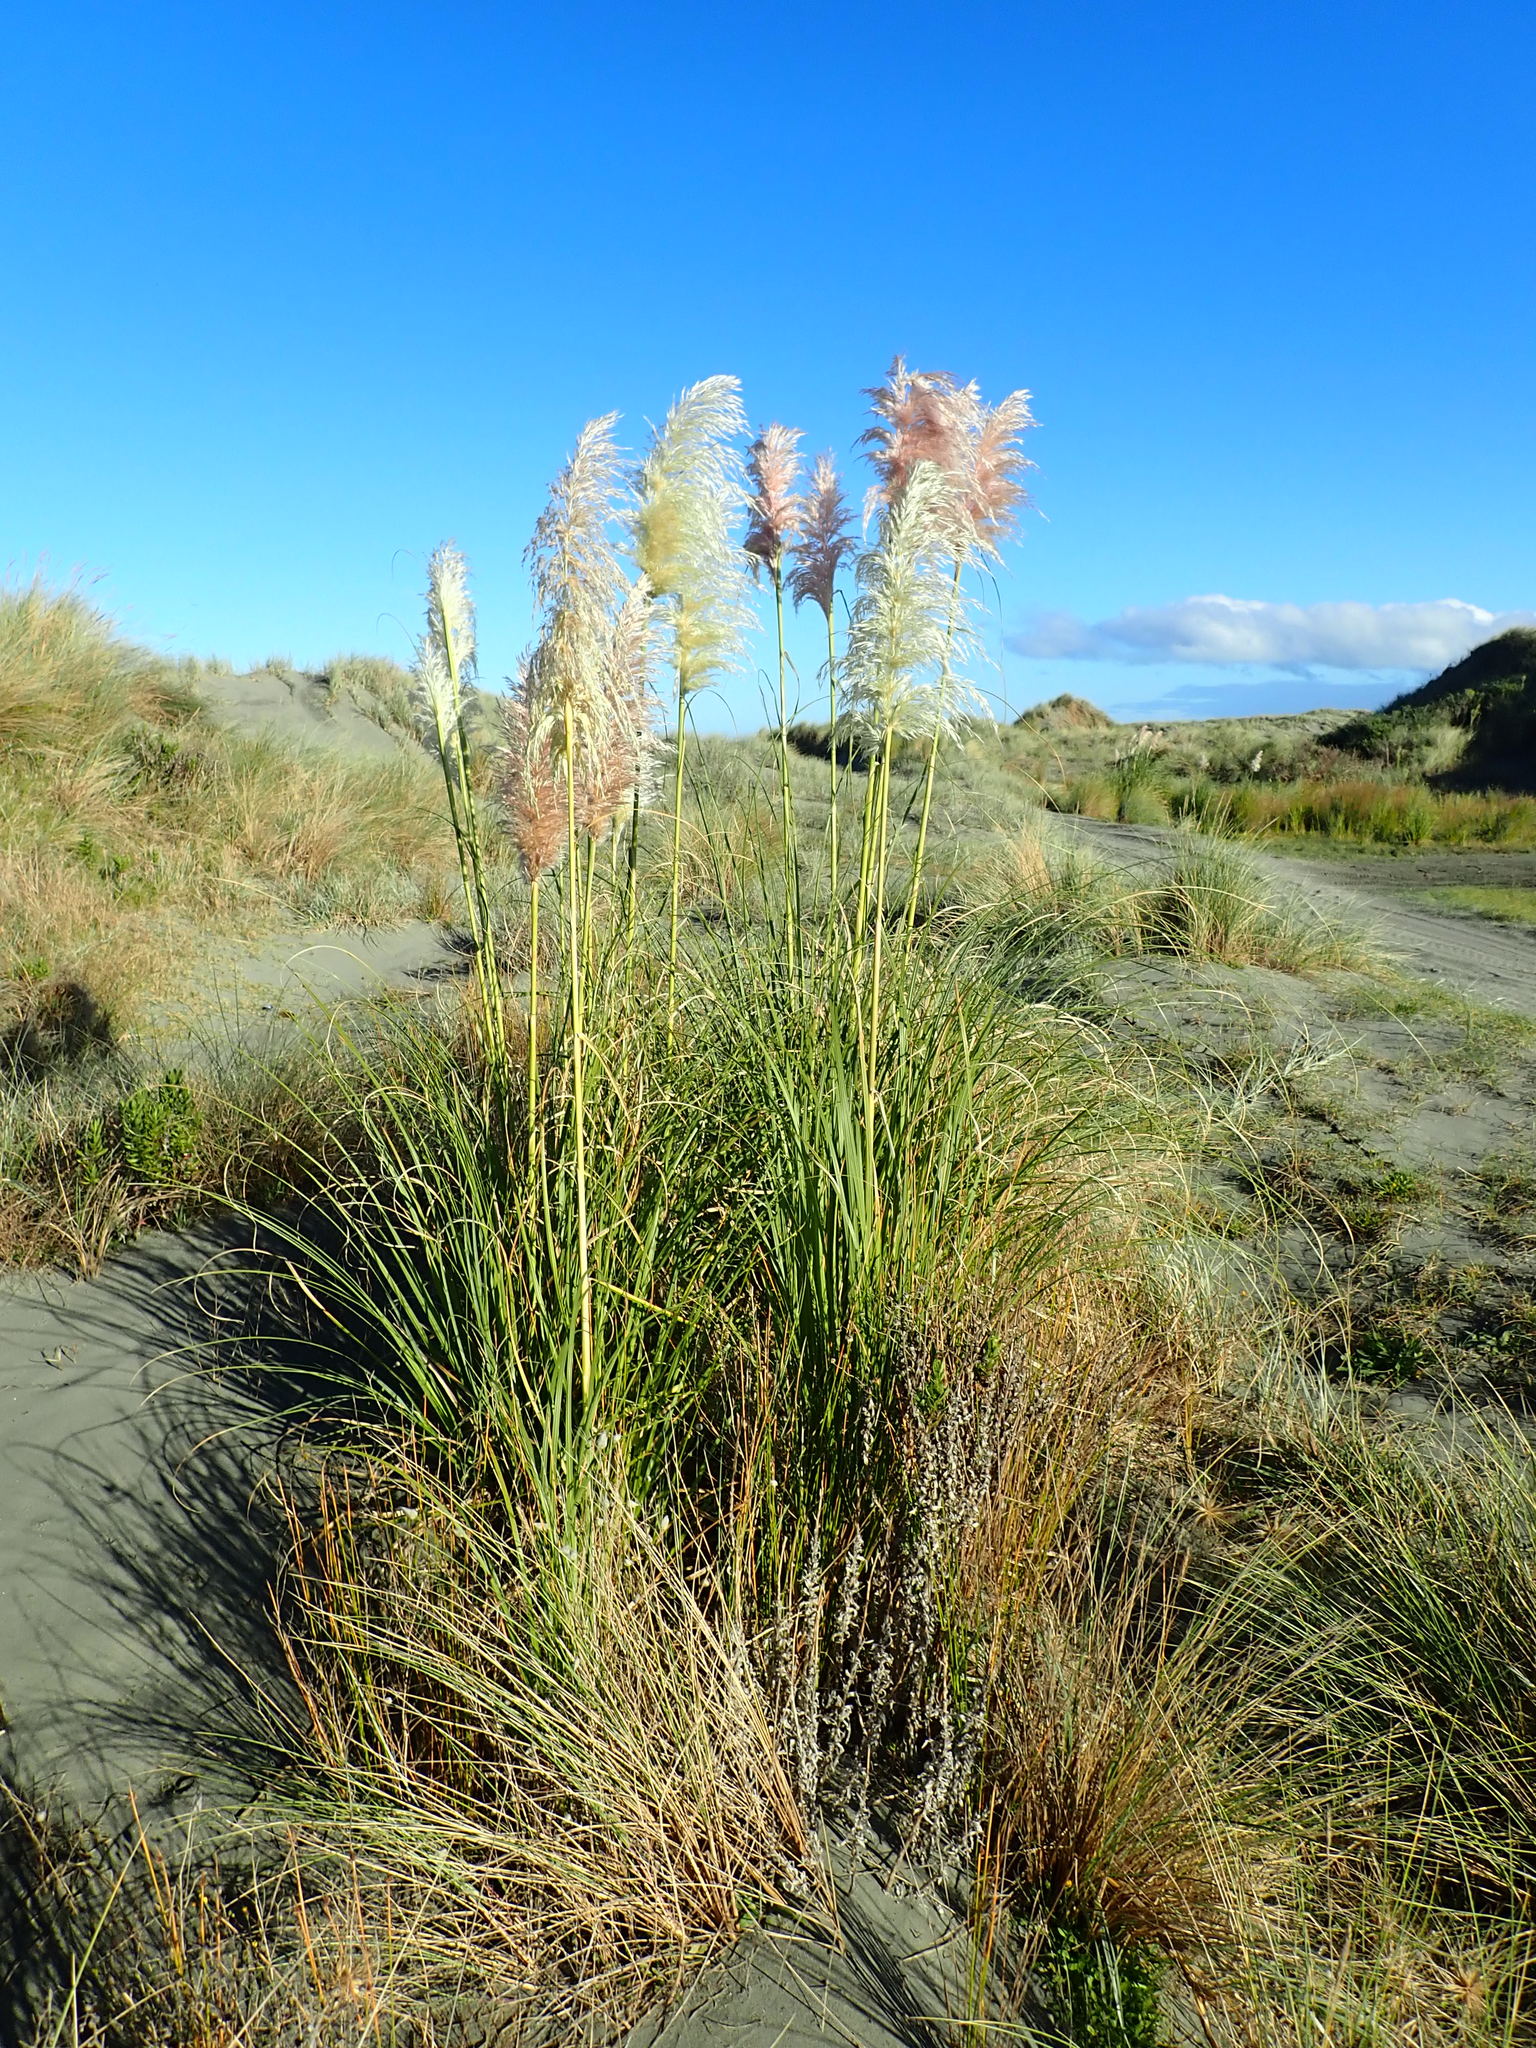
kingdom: Plantae
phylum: Tracheophyta
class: Liliopsida
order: Poales
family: Poaceae
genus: Cortaderia
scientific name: Cortaderia selloana
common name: Uruguayan pampas grass
